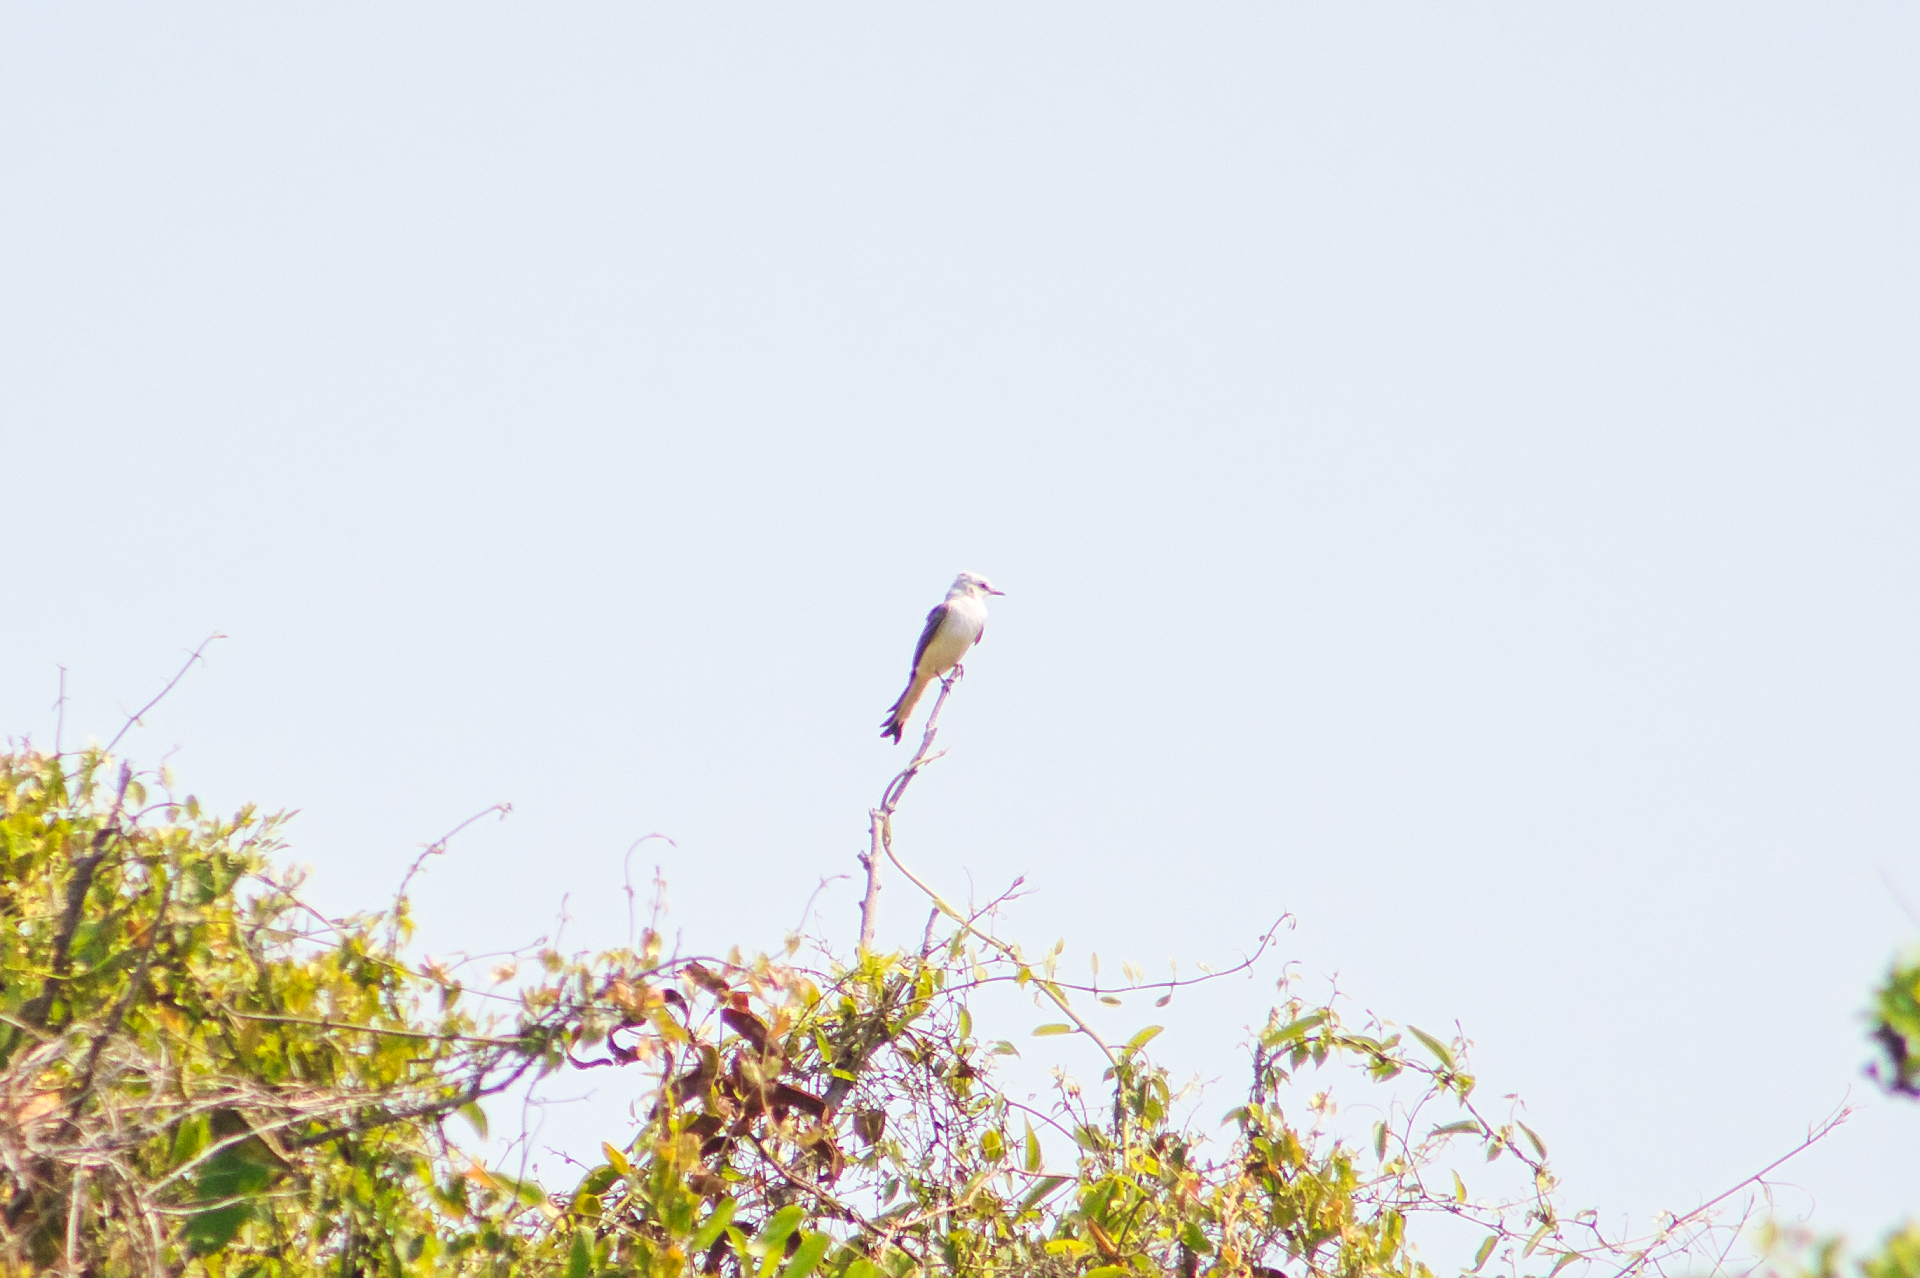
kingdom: Animalia
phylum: Chordata
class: Aves
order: Passeriformes
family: Tyrannidae
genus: Tyrannus
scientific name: Tyrannus forficatus
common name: Scissor-tailed flycatcher
